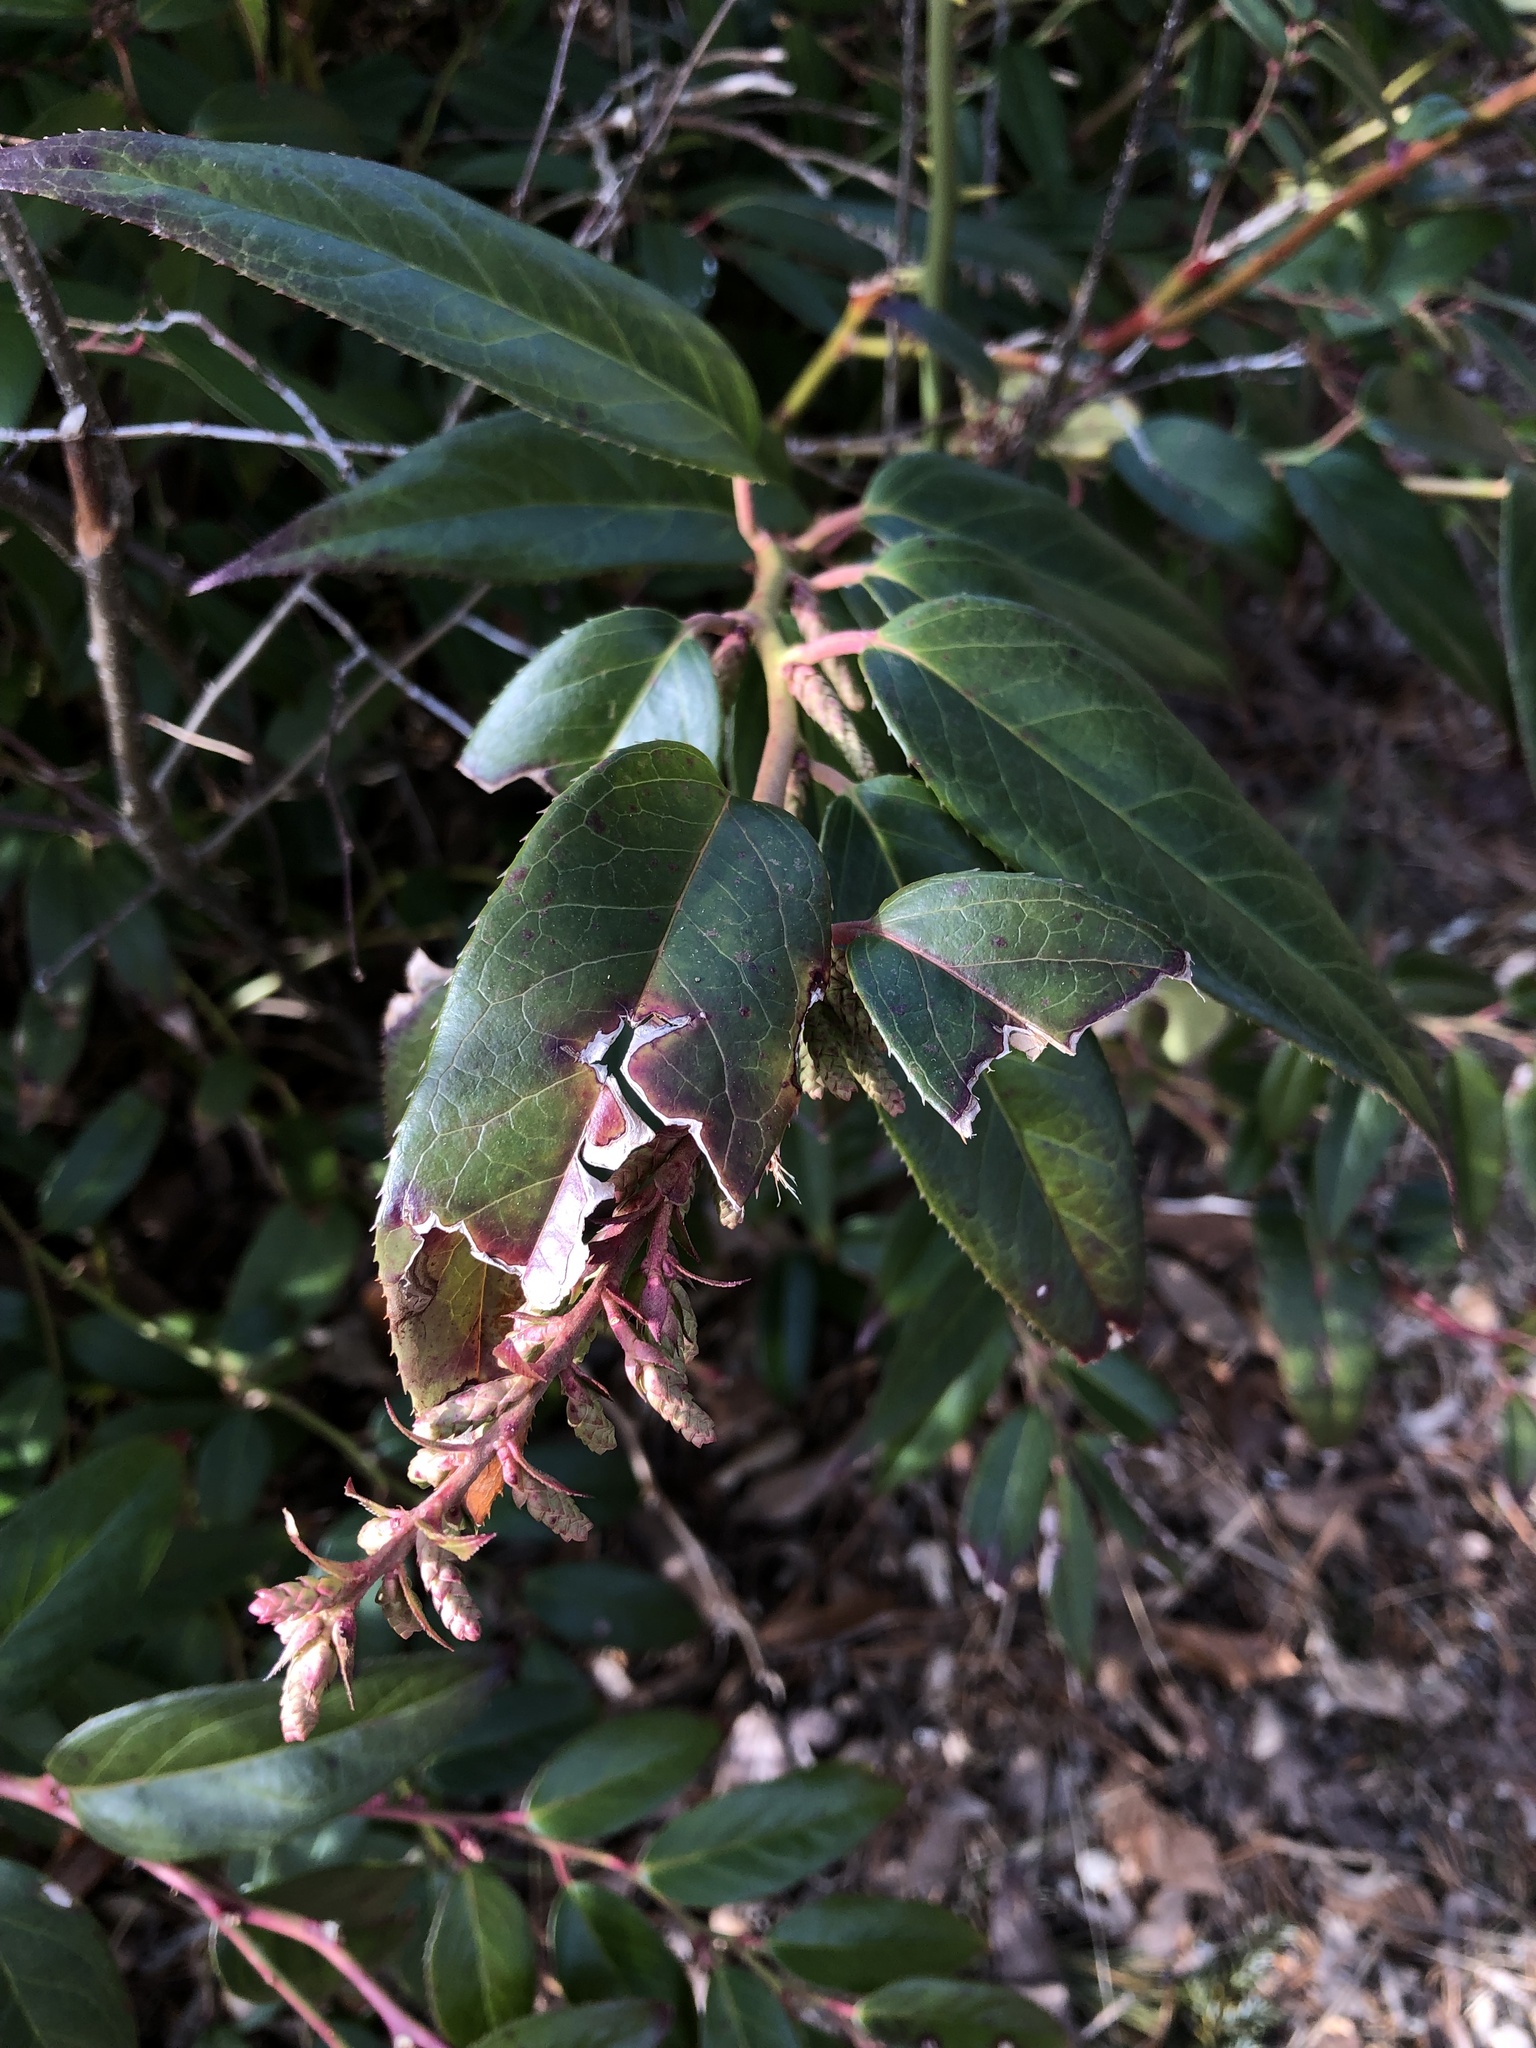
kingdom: Plantae
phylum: Tracheophyta
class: Magnoliopsida
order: Ericales
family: Ericaceae
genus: Leucothoe
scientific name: Leucothoe fontanesiana
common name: Fetterbush
